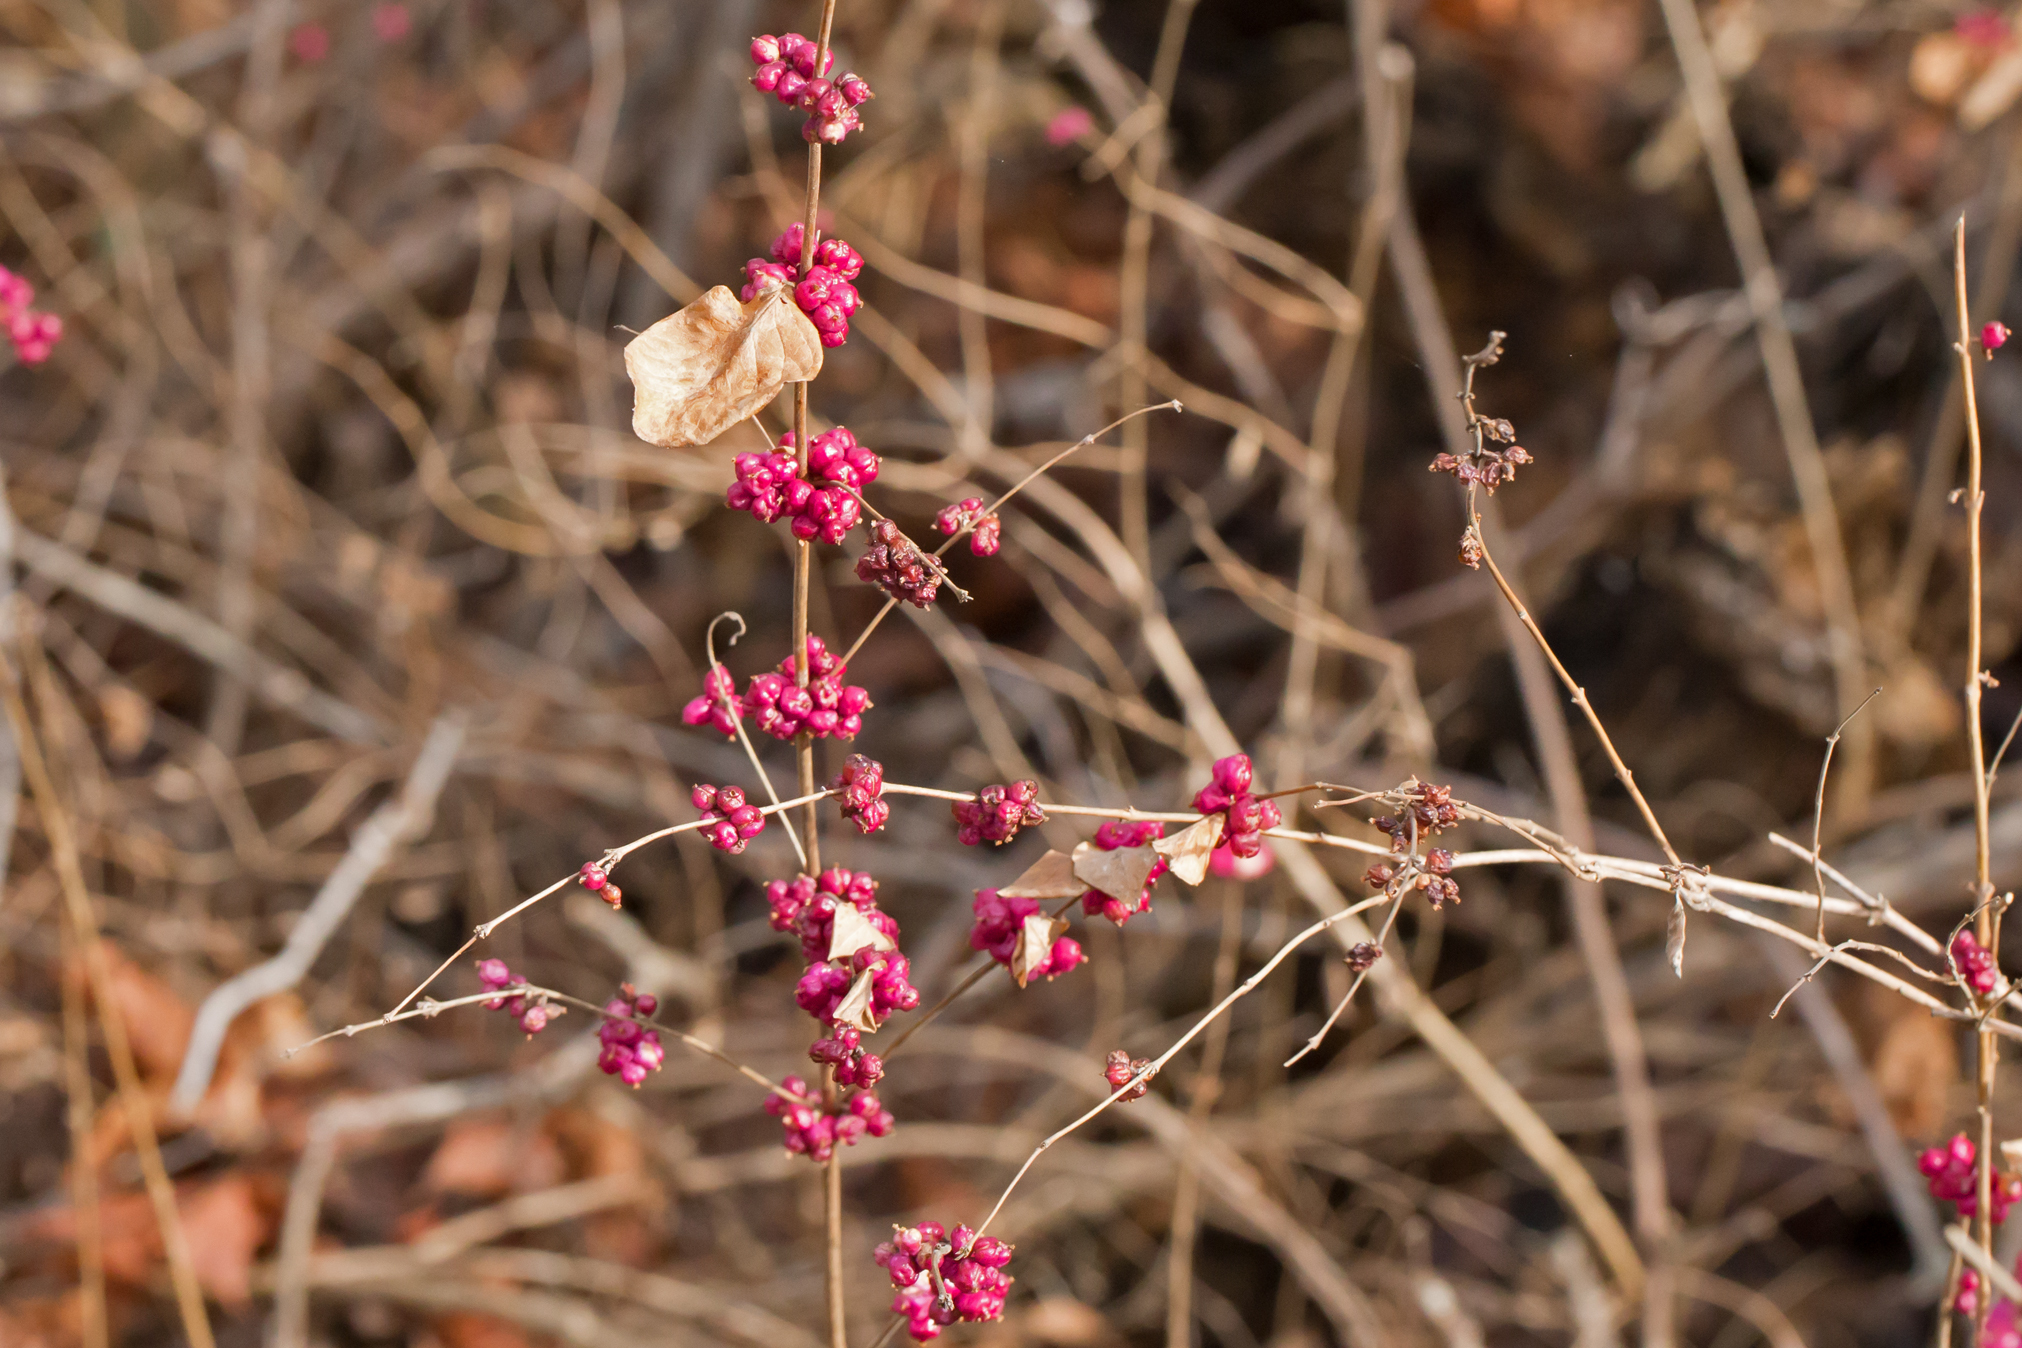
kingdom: Plantae
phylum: Tracheophyta
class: Magnoliopsida
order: Dipsacales
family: Caprifoliaceae
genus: Symphoricarpos
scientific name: Symphoricarpos orbiculatus
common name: Coralberry
